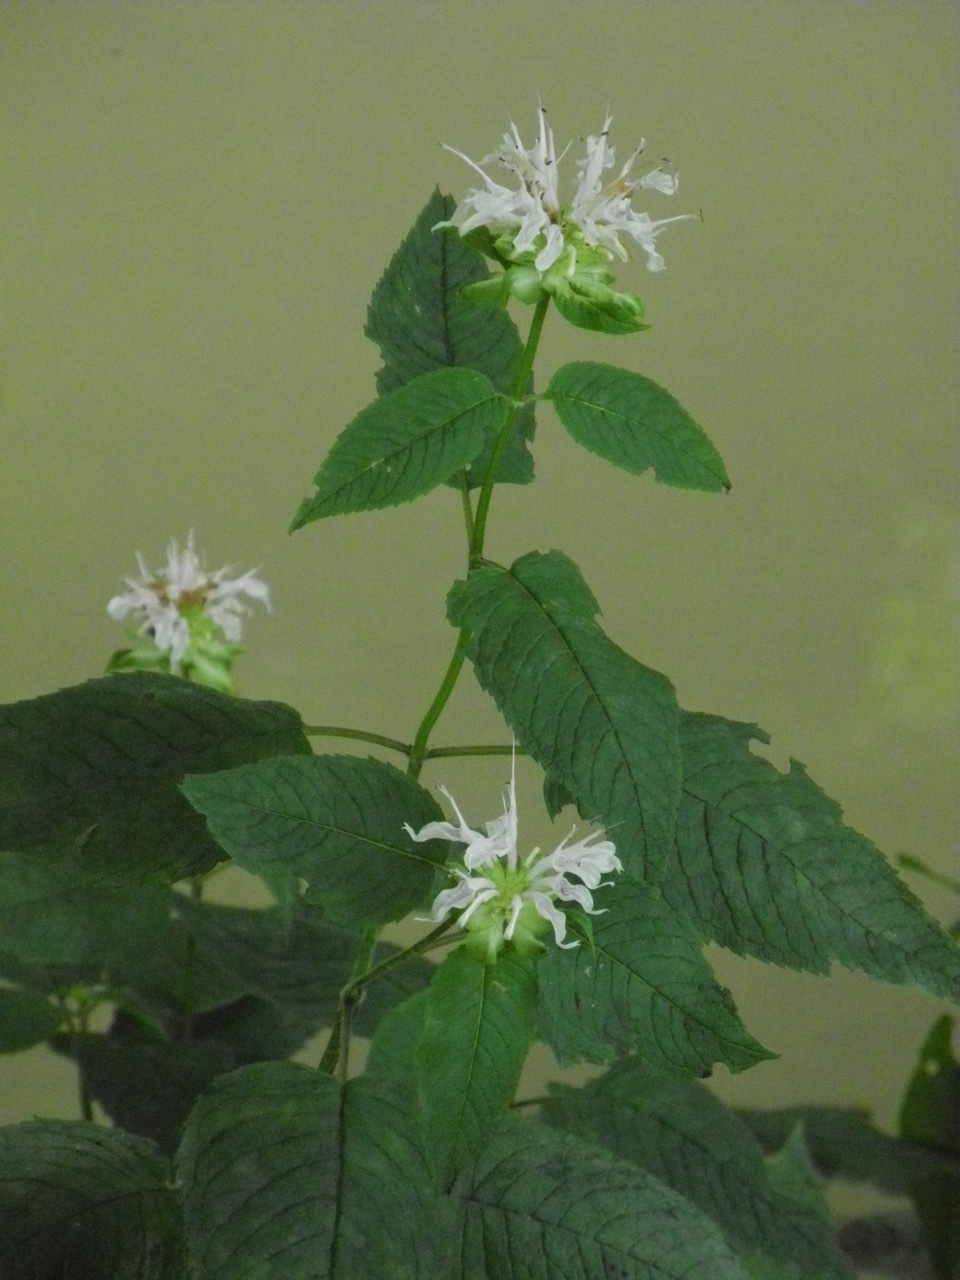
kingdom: Plantae
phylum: Tracheophyta
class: Magnoliopsida
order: Lamiales
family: Lamiaceae
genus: Monarda
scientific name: Monarda clinopodia
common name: Basil beebalm
